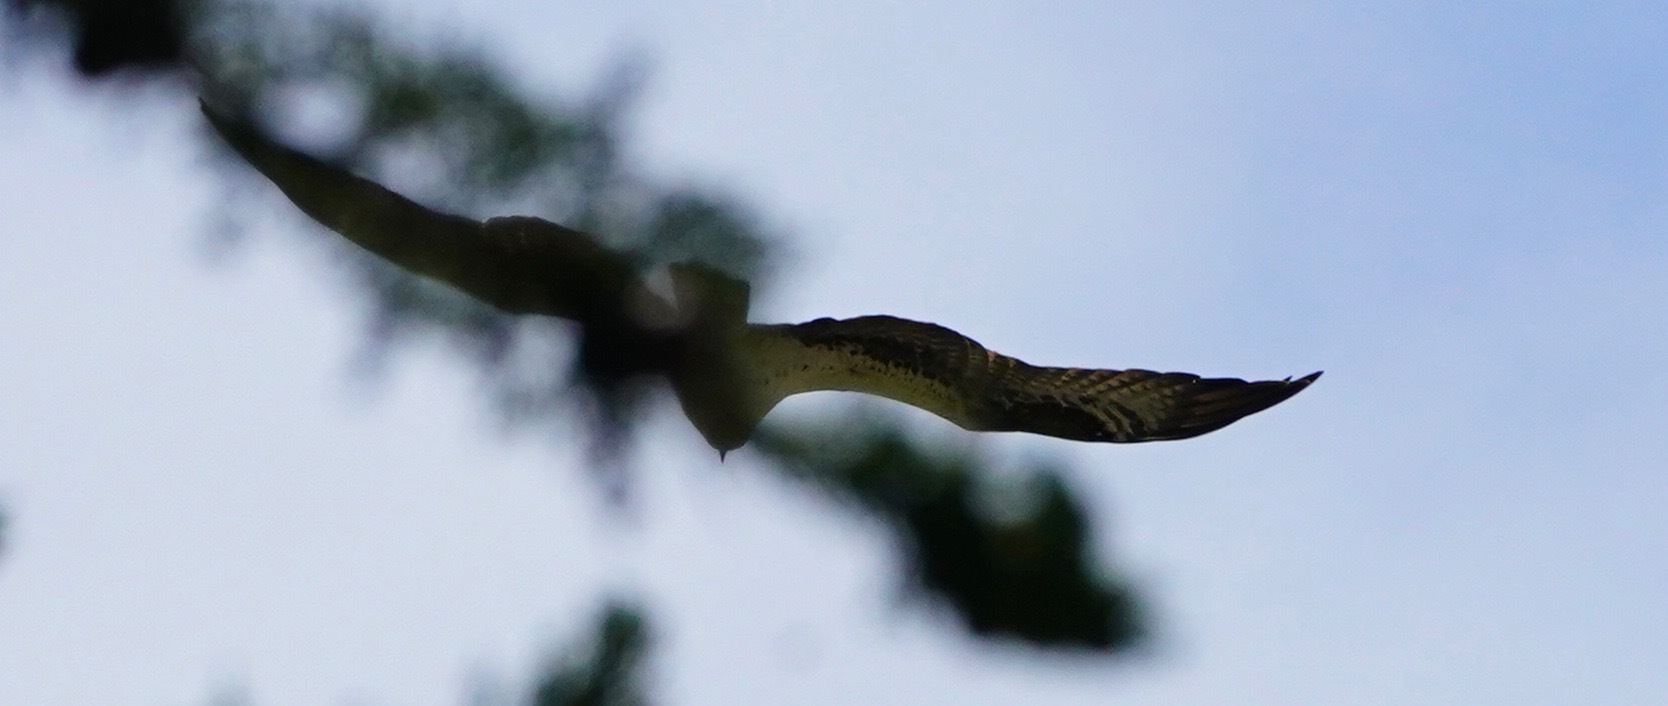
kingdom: Animalia
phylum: Chordata
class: Aves
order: Accipitriformes
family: Pandionidae
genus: Pandion
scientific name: Pandion haliaetus
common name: Osprey
